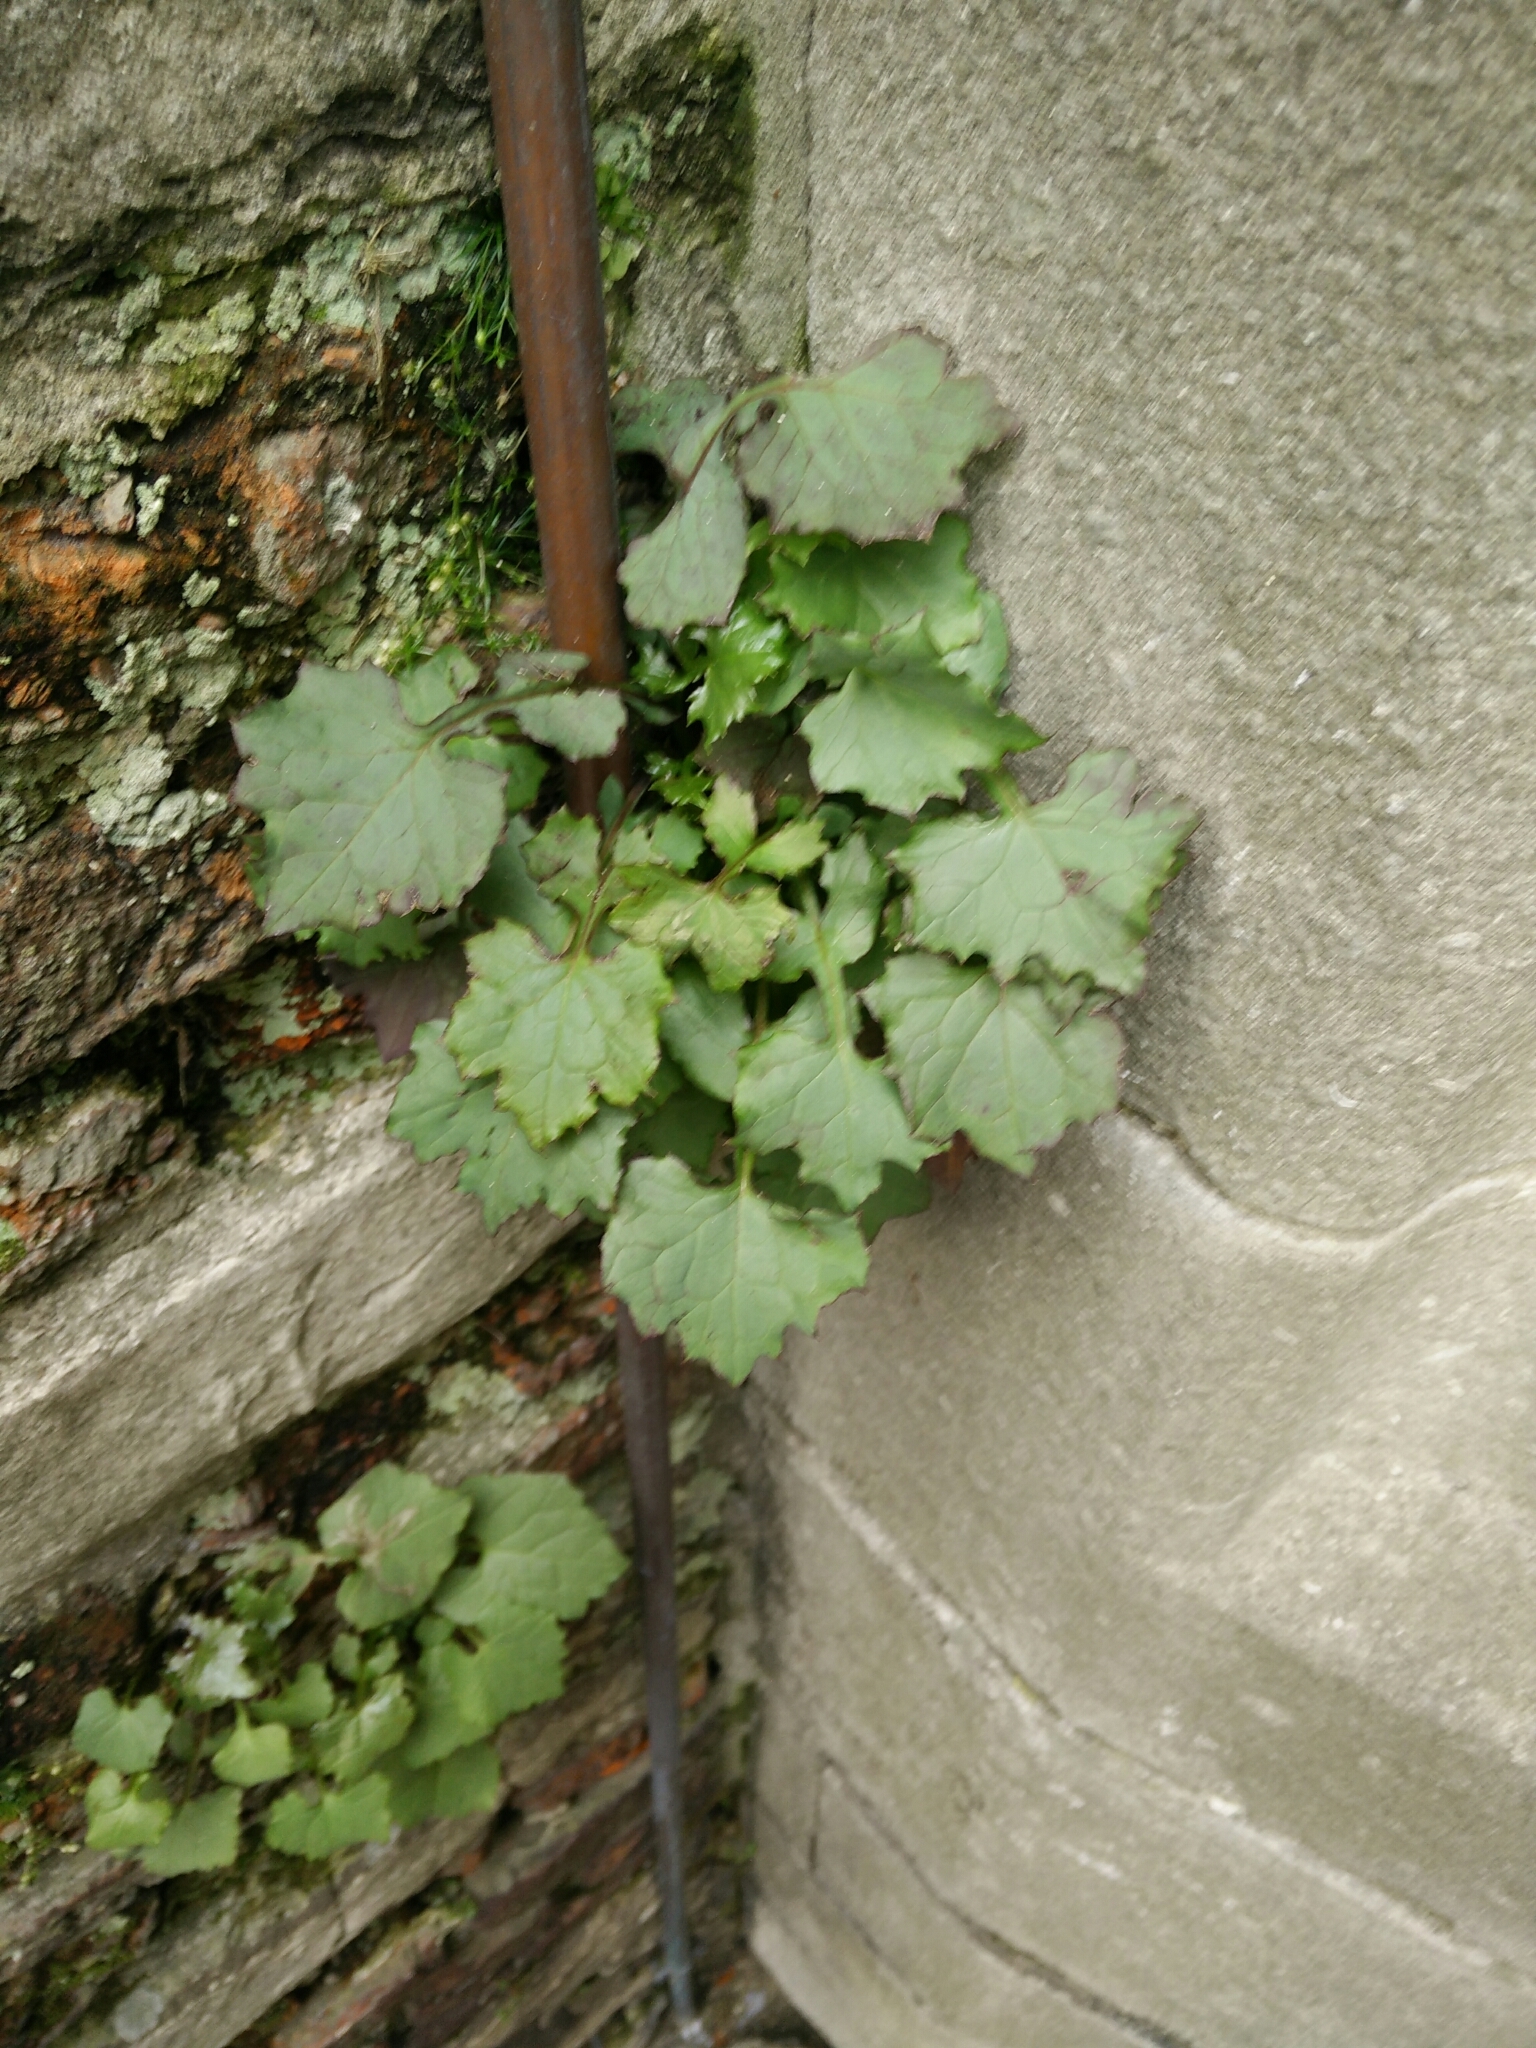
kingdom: Plantae
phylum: Tracheophyta
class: Magnoliopsida
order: Asterales
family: Asteraceae
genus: Mycelis
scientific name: Mycelis muralis
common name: Wall lettuce
